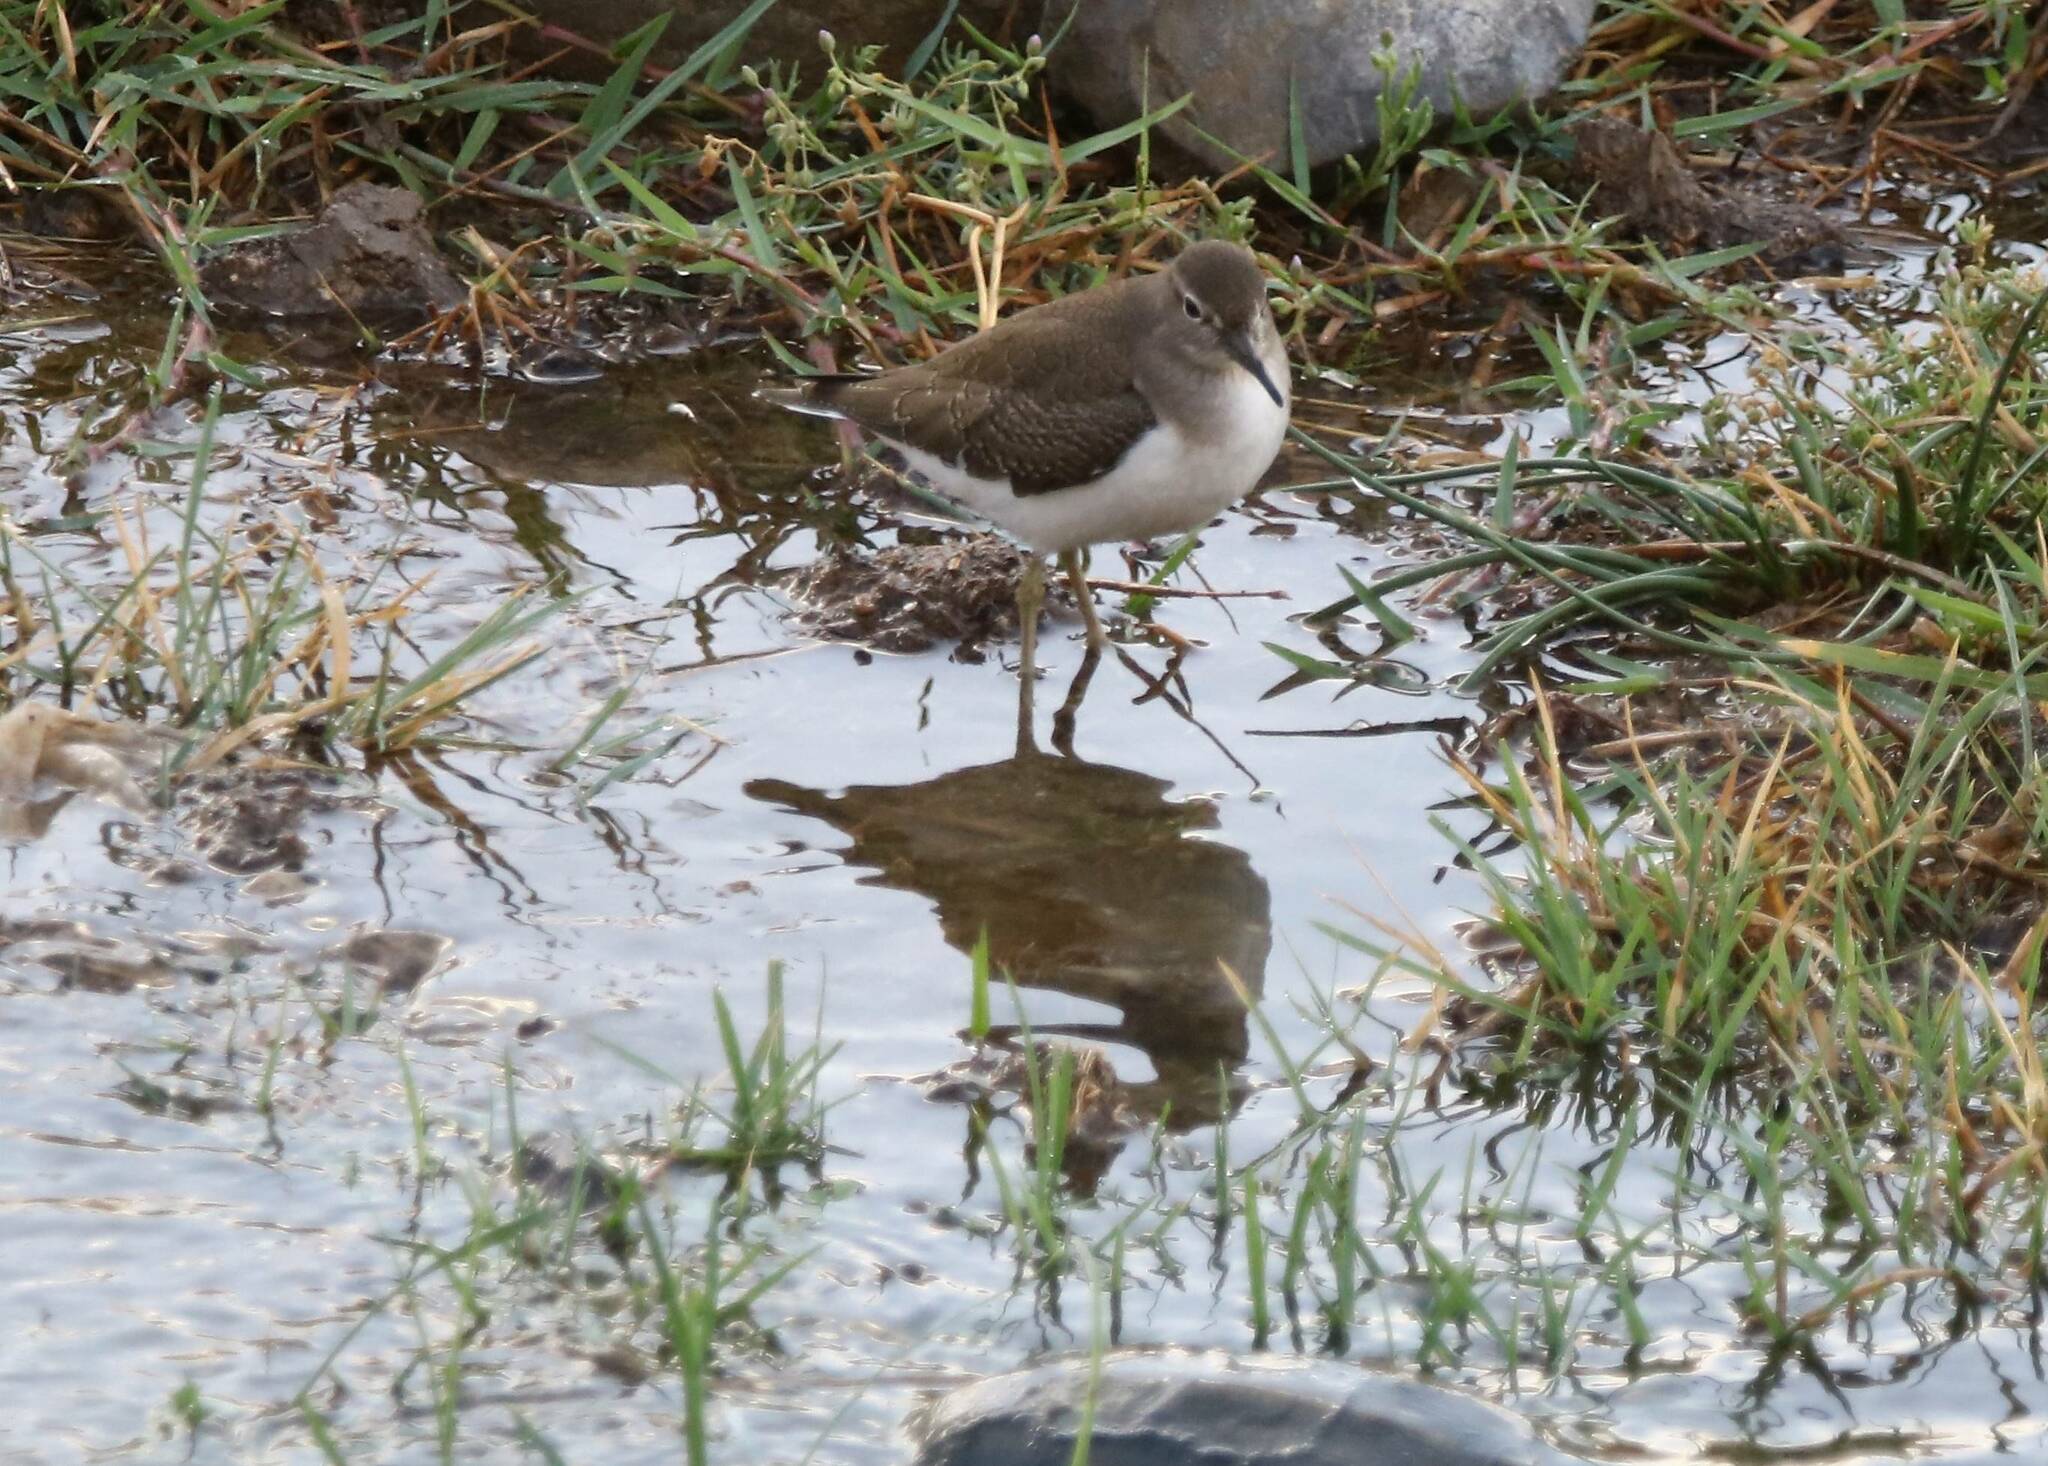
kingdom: Animalia
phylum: Chordata
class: Aves
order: Charadriiformes
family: Scolopacidae
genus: Actitis
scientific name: Actitis hypoleucos
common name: Common sandpiper
